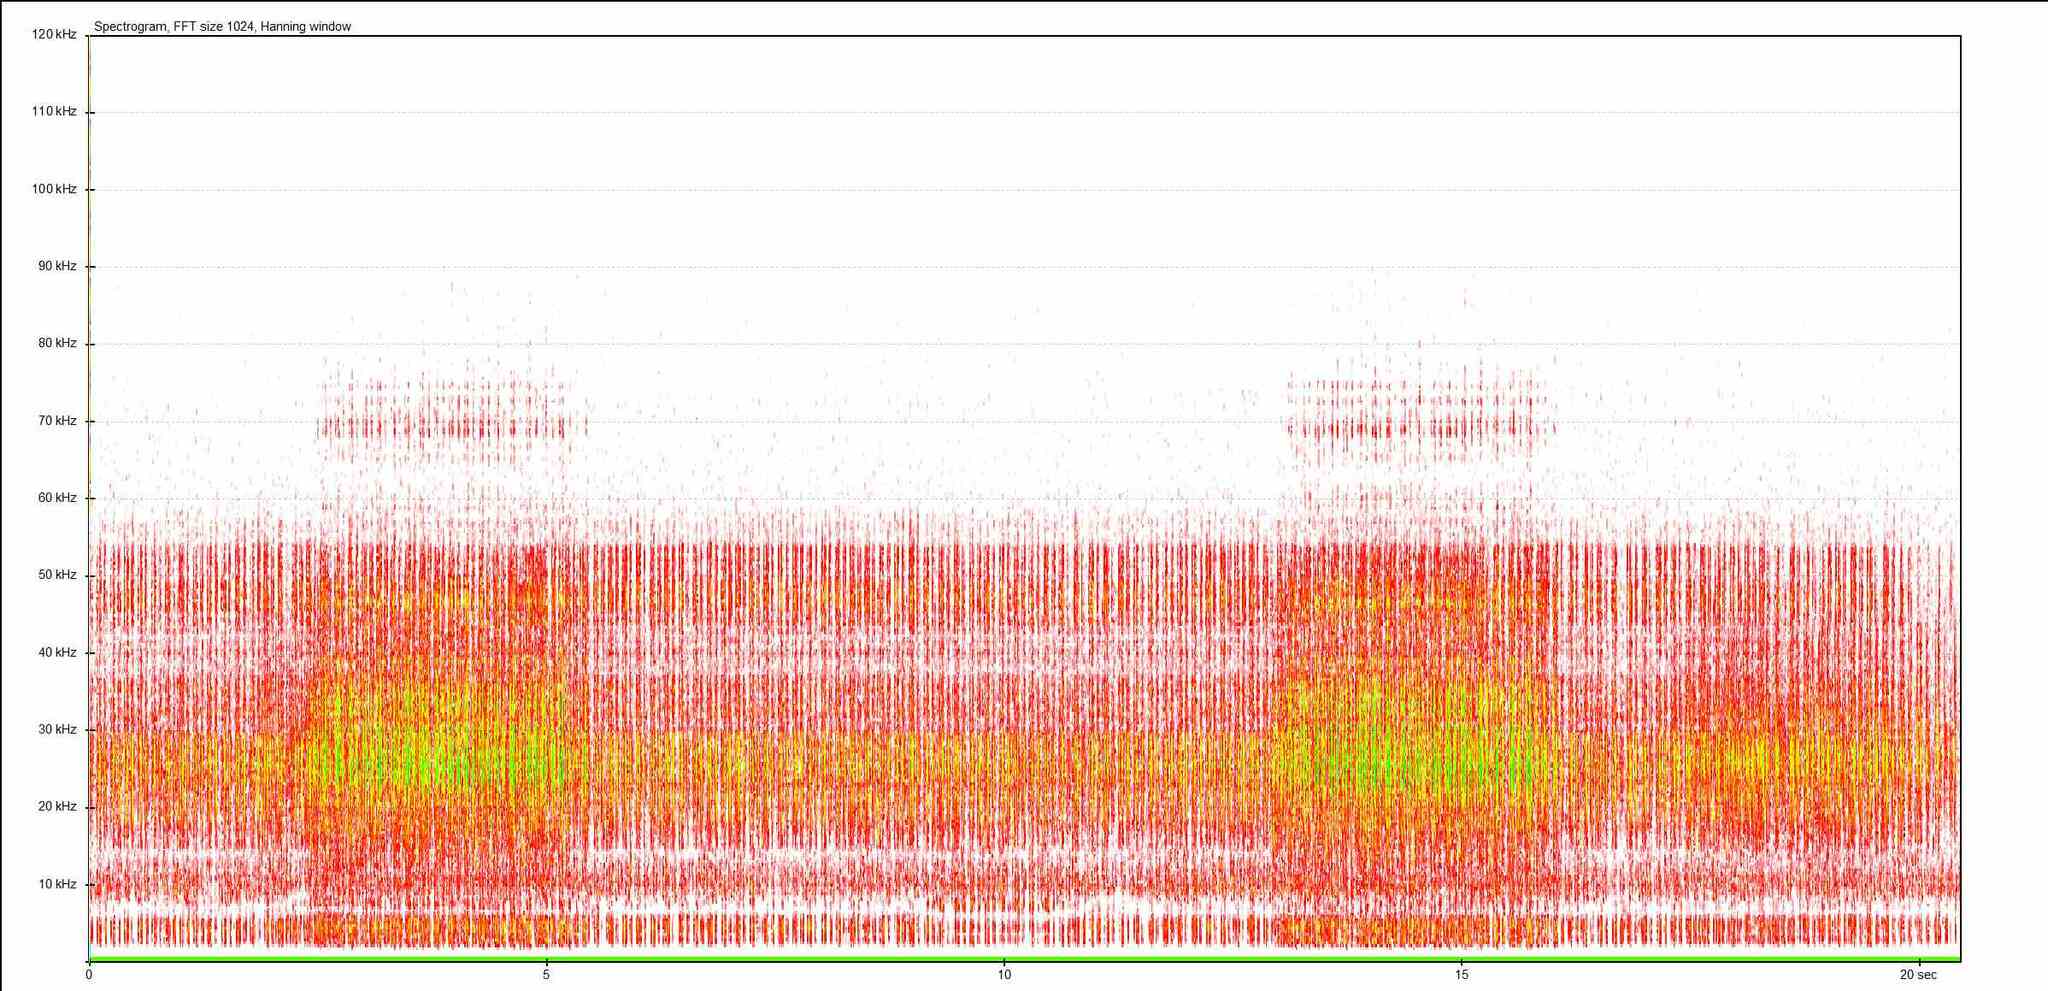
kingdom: Animalia
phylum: Arthropoda
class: Insecta
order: Orthoptera
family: Tettigoniidae
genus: Conocephalus
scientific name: Conocephalus fuscus
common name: Long-winged conehead
